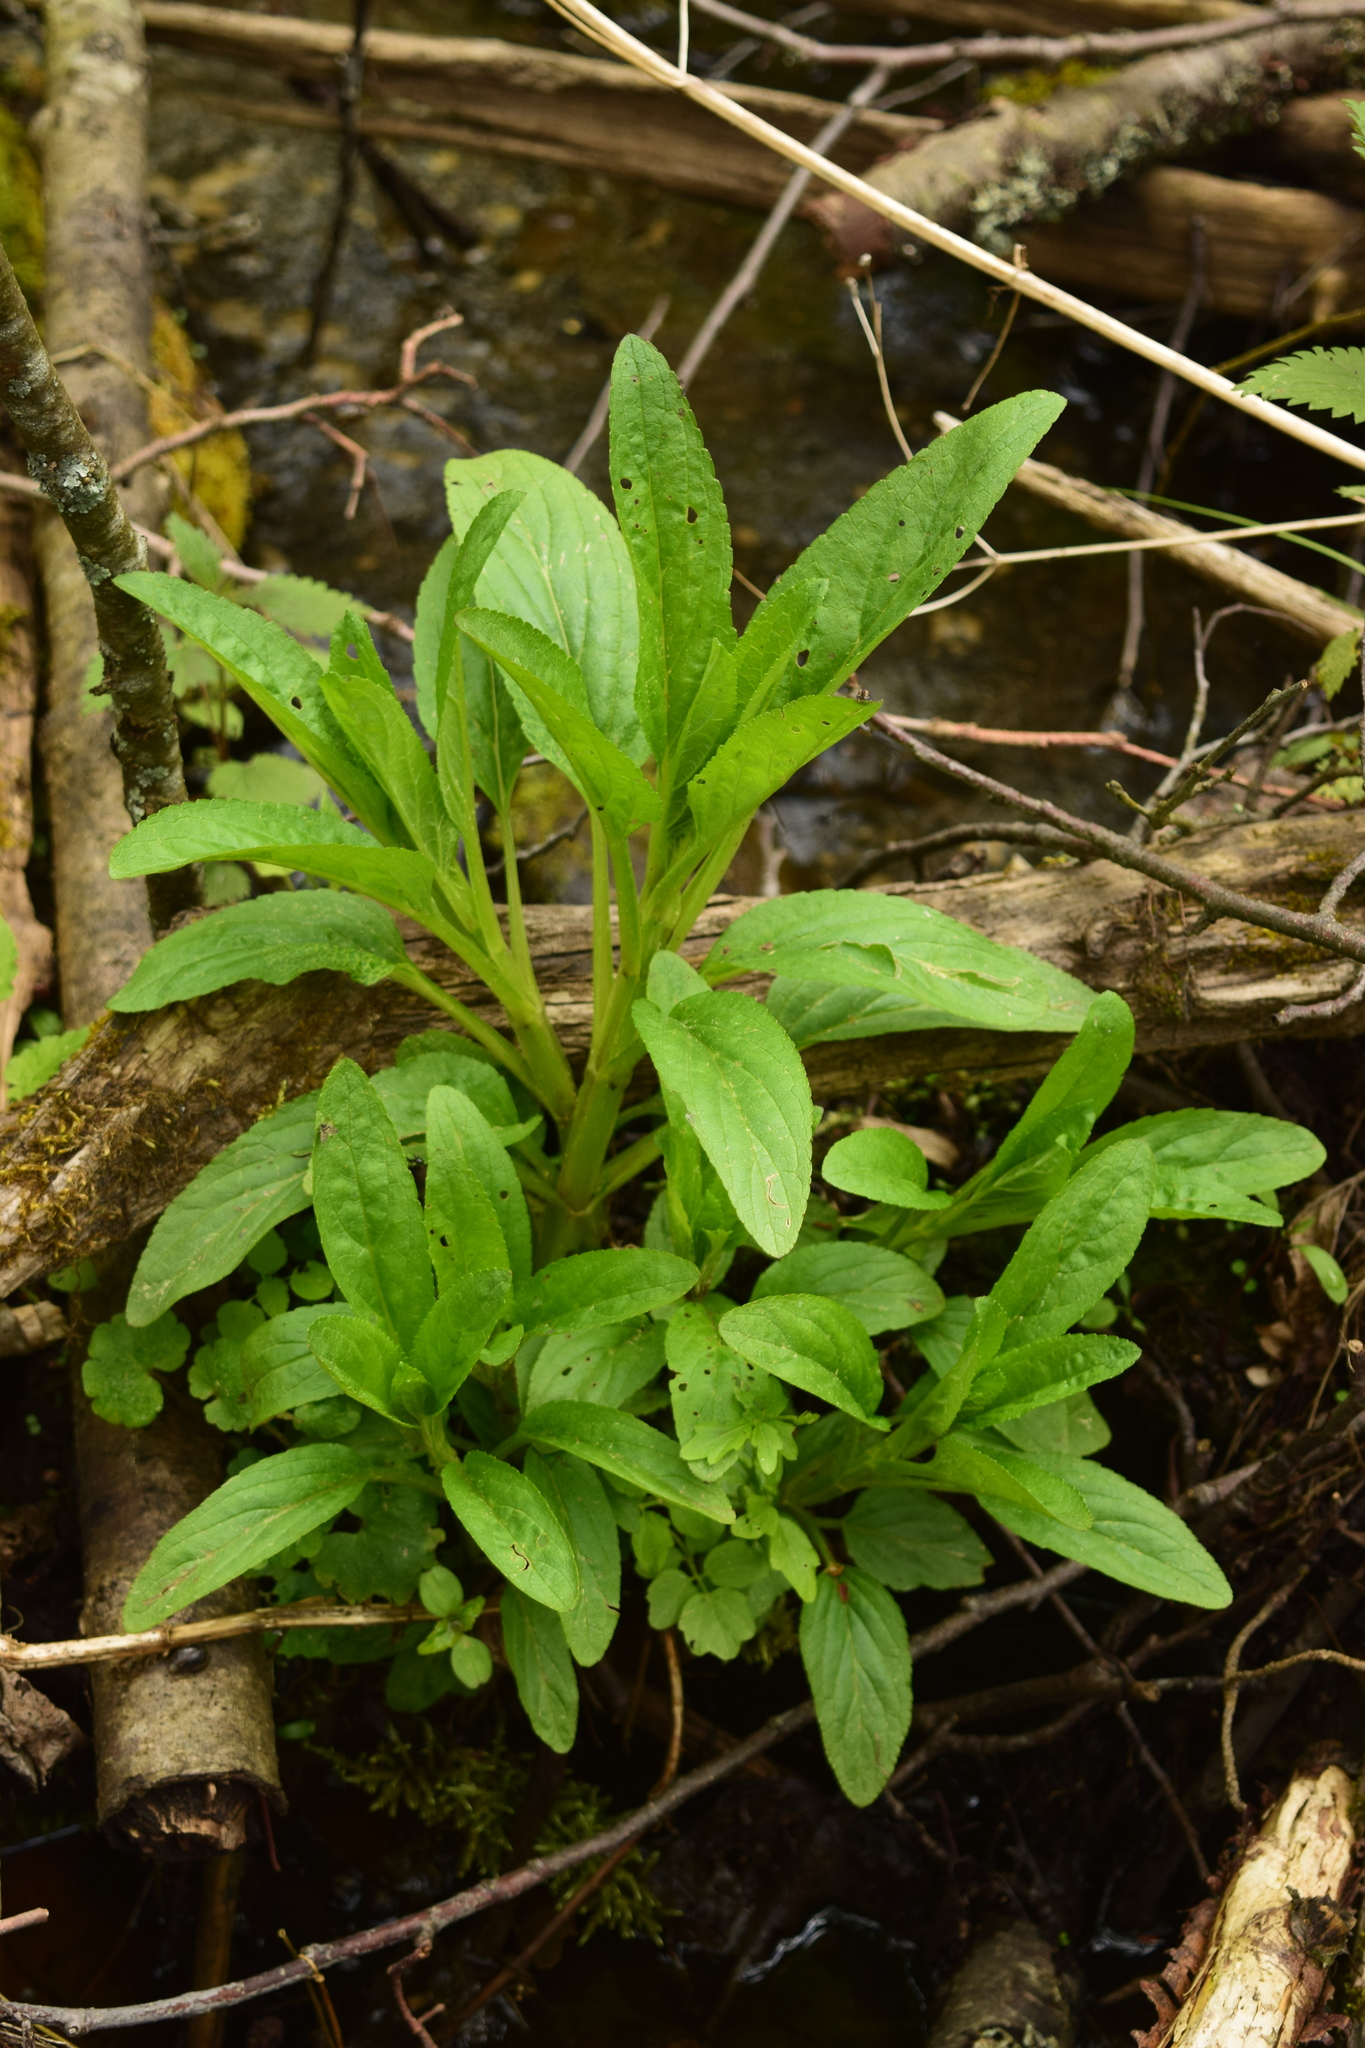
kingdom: Plantae
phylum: Tracheophyta
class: Magnoliopsida
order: Lamiales
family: Scrophulariaceae
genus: Scrophularia
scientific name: Scrophularia umbrosa
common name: Green figwort
